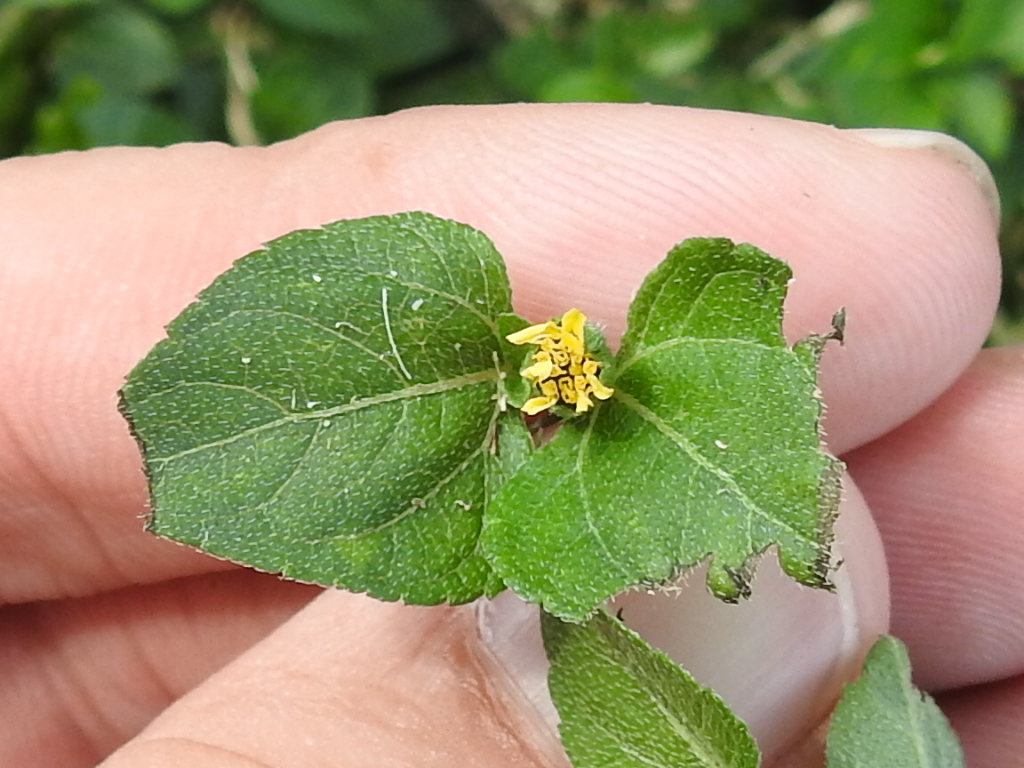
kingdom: Plantae
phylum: Tracheophyta
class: Magnoliopsida
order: Asterales
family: Asteraceae
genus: Calyptocarpus
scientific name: Calyptocarpus vialis
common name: Straggler daisy
